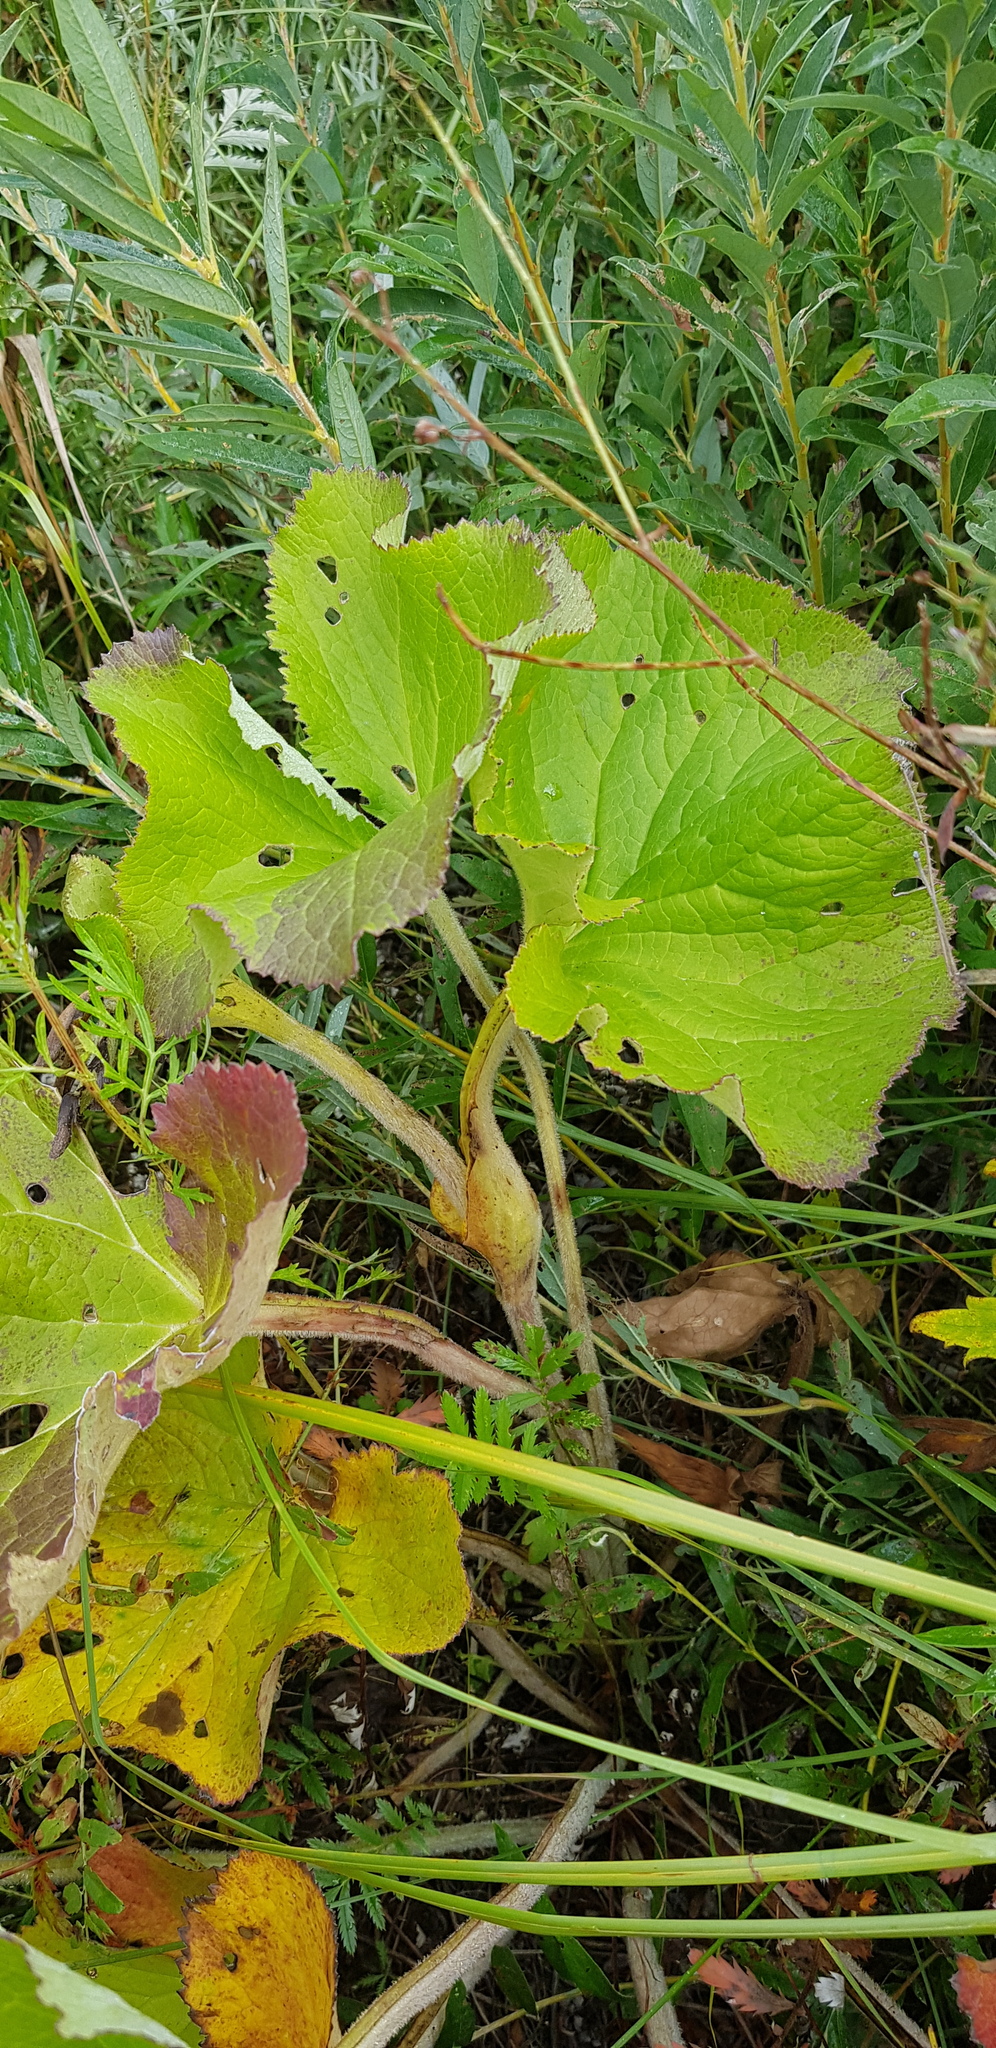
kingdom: Plantae
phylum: Tracheophyta
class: Magnoliopsida
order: Asterales
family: Asteraceae
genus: Ligularia
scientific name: Ligularia sibirica
